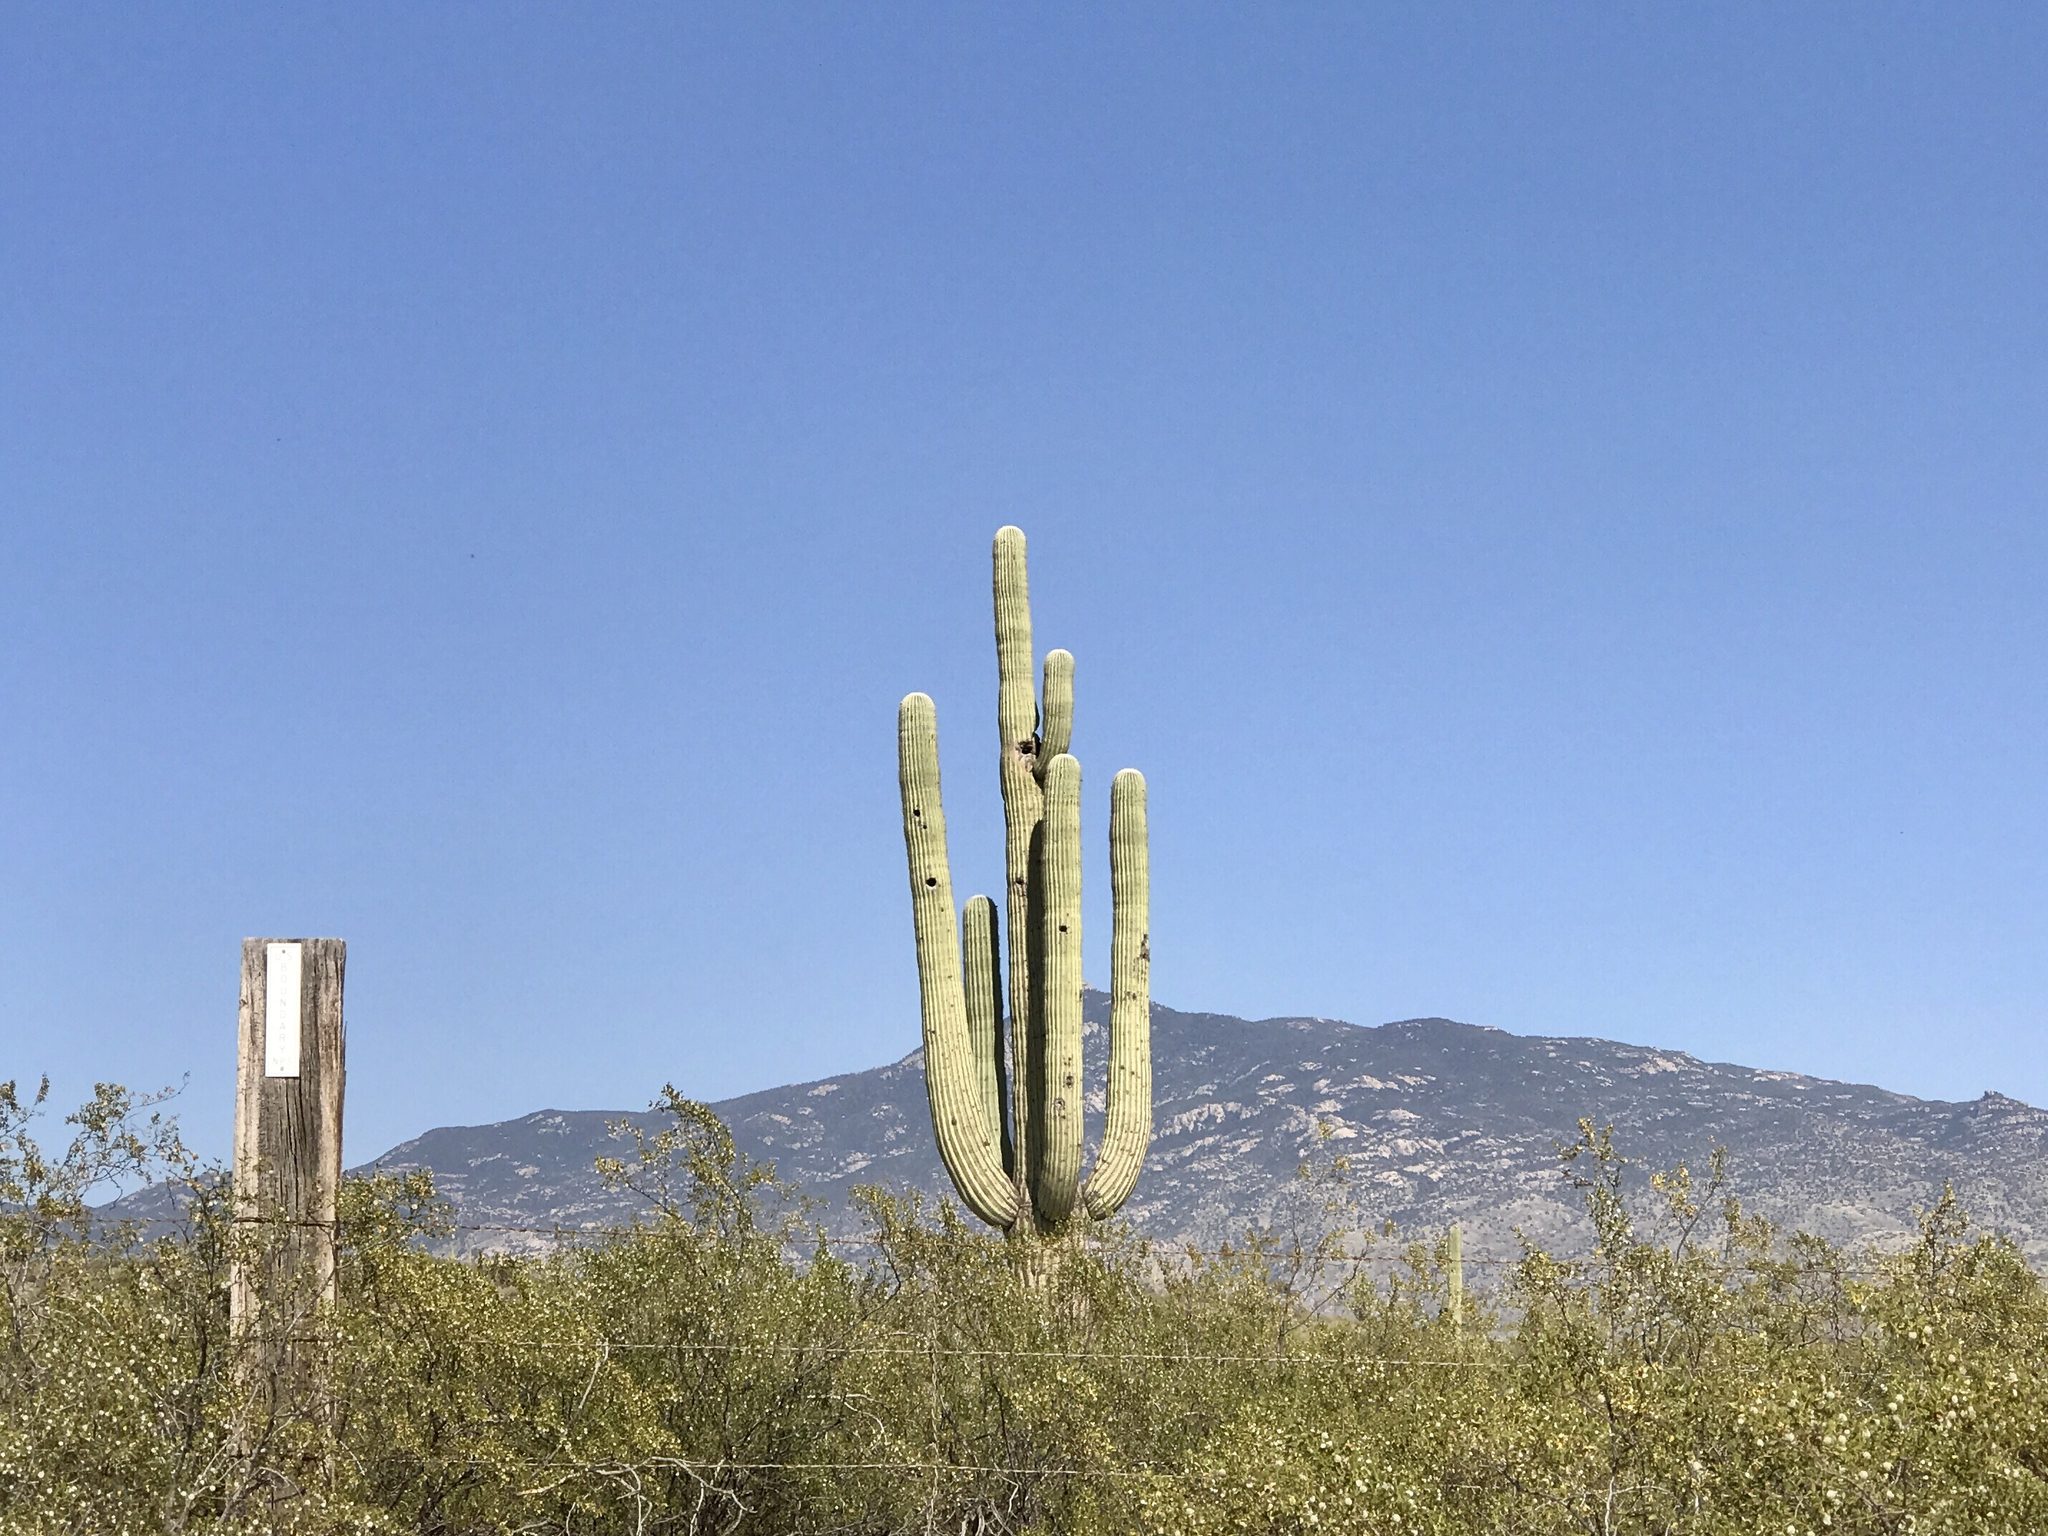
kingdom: Plantae
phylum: Tracheophyta
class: Magnoliopsida
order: Caryophyllales
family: Cactaceae
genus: Carnegiea
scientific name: Carnegiea gigantea
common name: Saguaro
